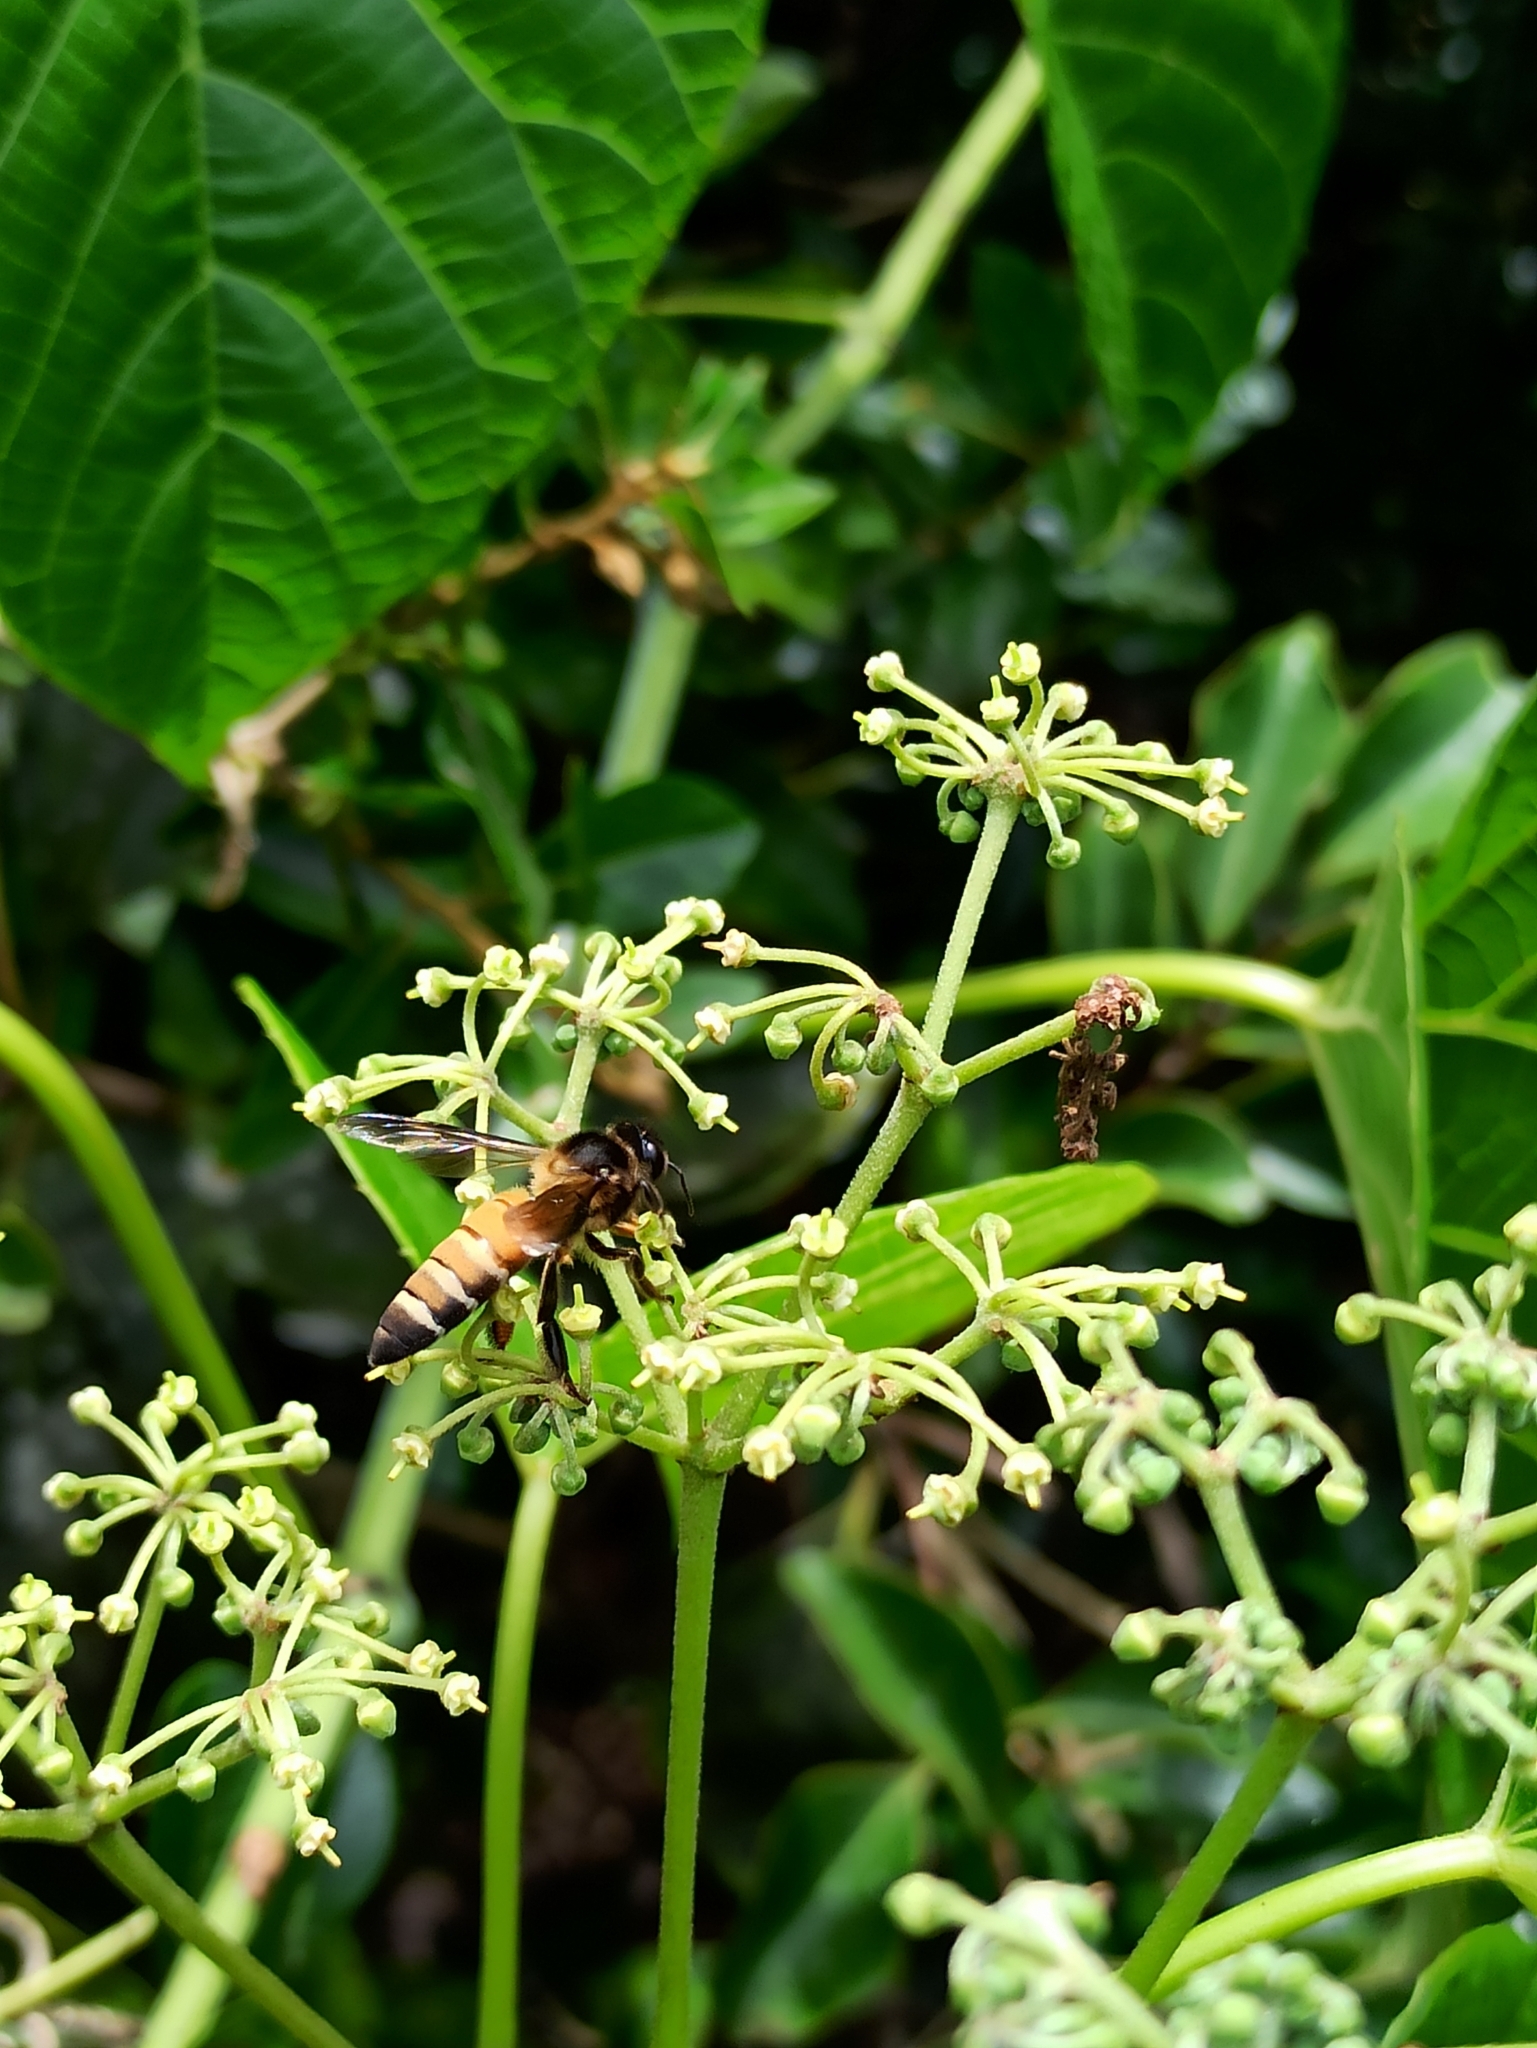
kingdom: Animalia
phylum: Arthropoda
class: Insecta
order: Hymenoptera
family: Apidae
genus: Apis
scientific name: Apis dorsata
